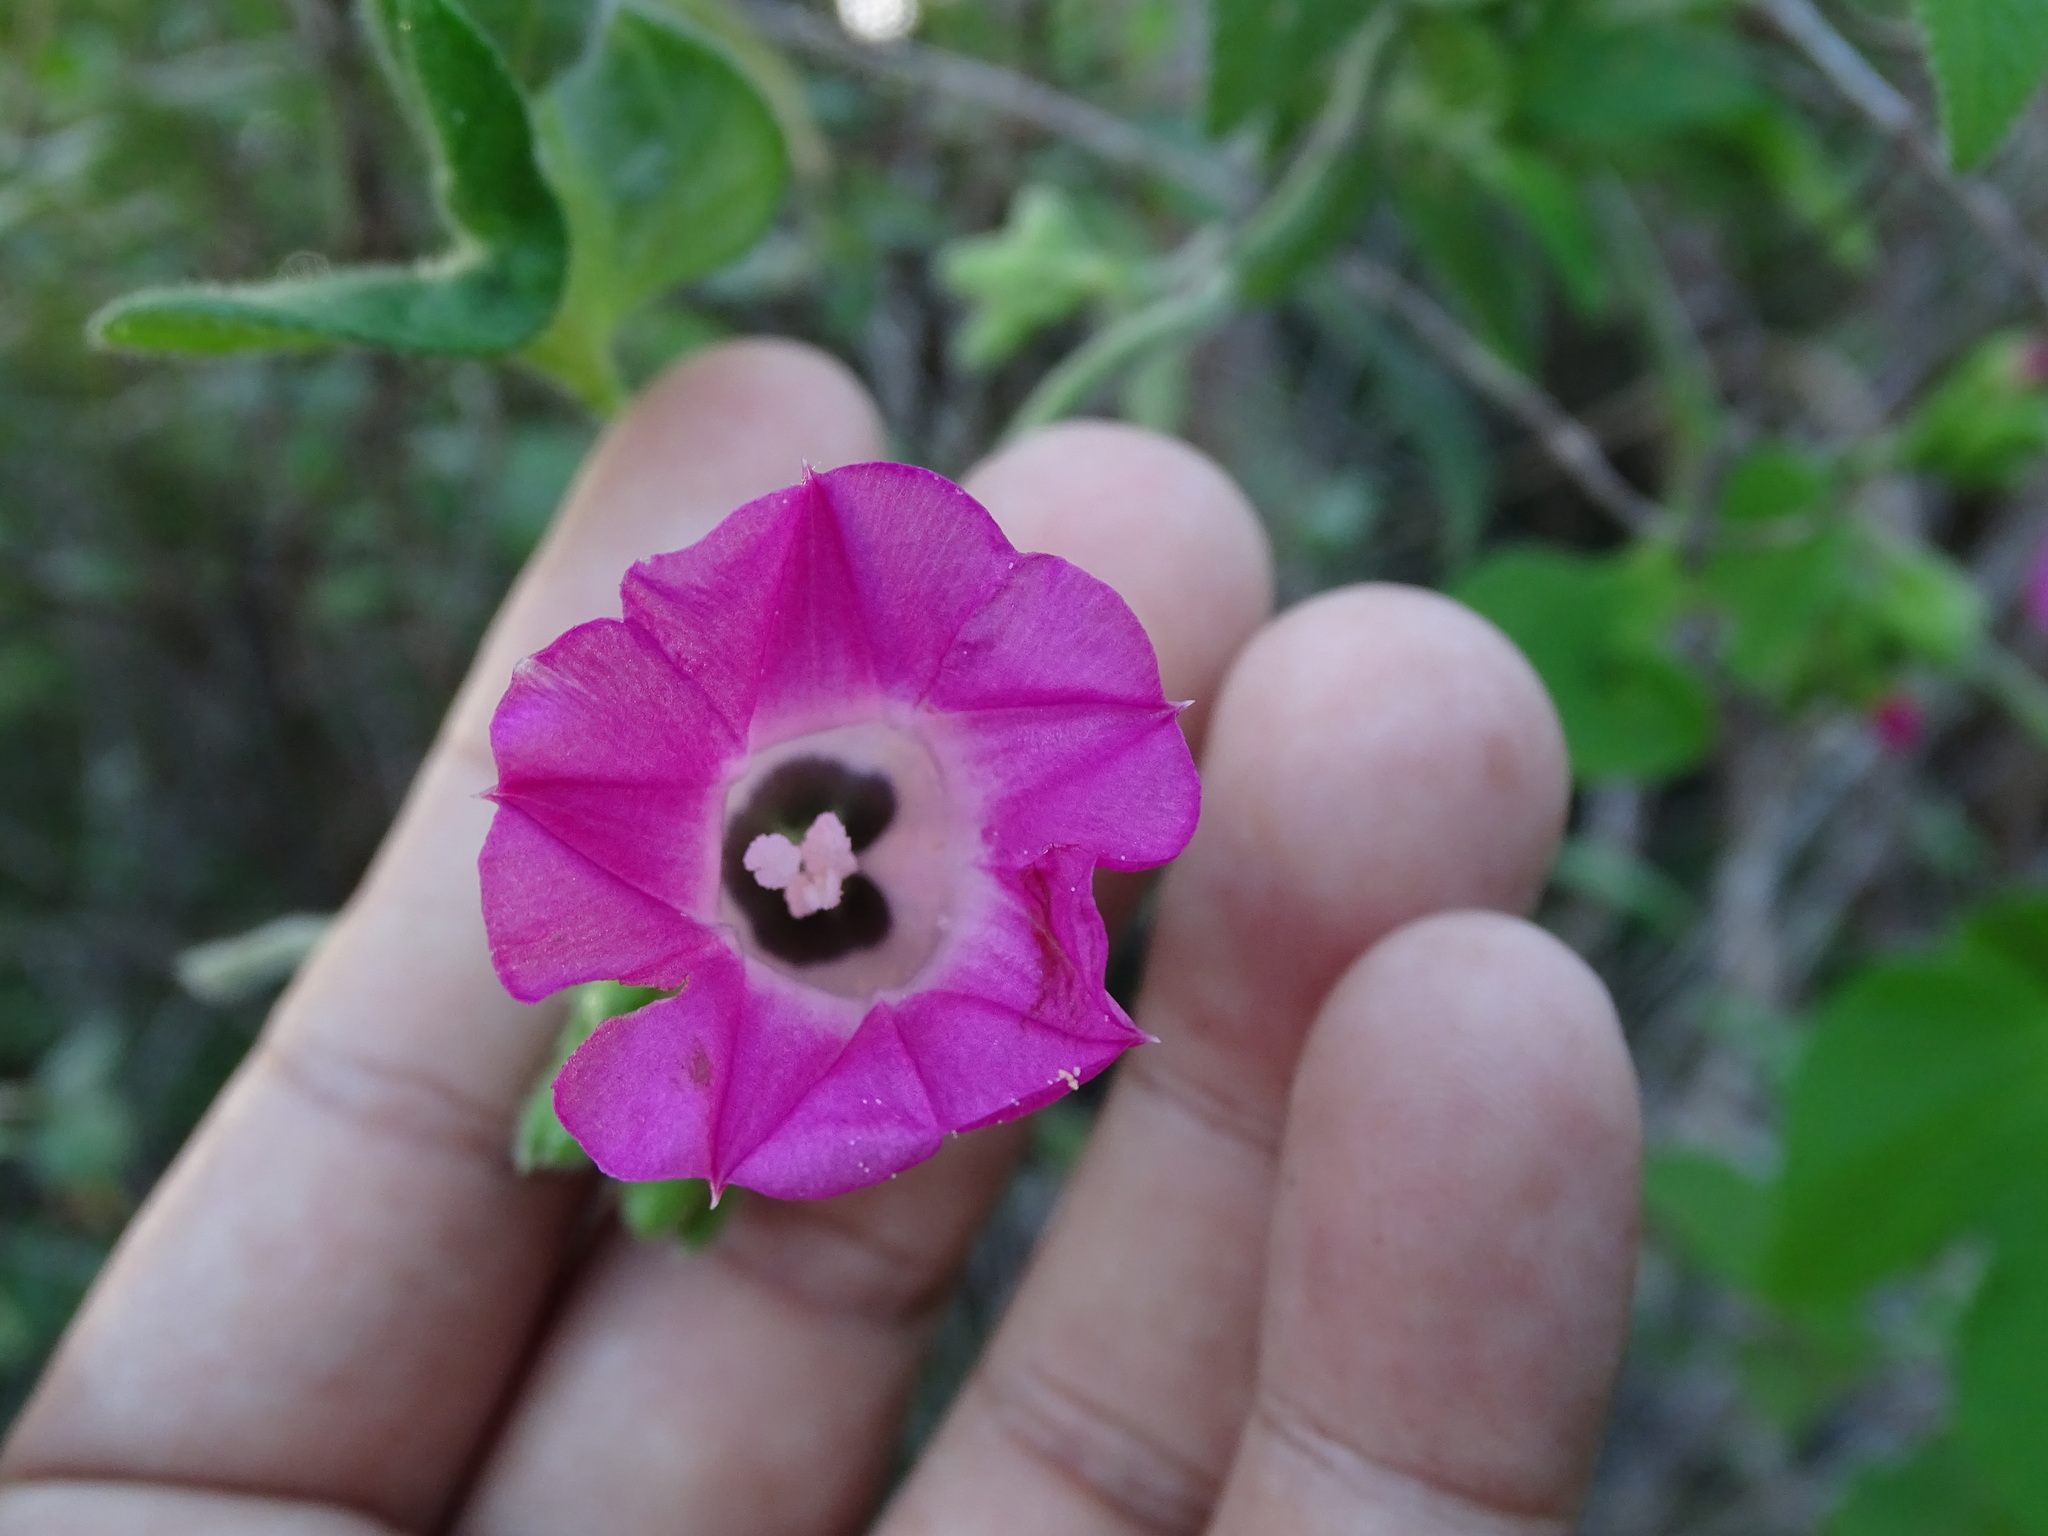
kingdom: Plantae
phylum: Tracheophyta
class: Magnoliopsida
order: Solanales
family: Convolvulaceae
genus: Ipomoea
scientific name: Ipomoea peteri
